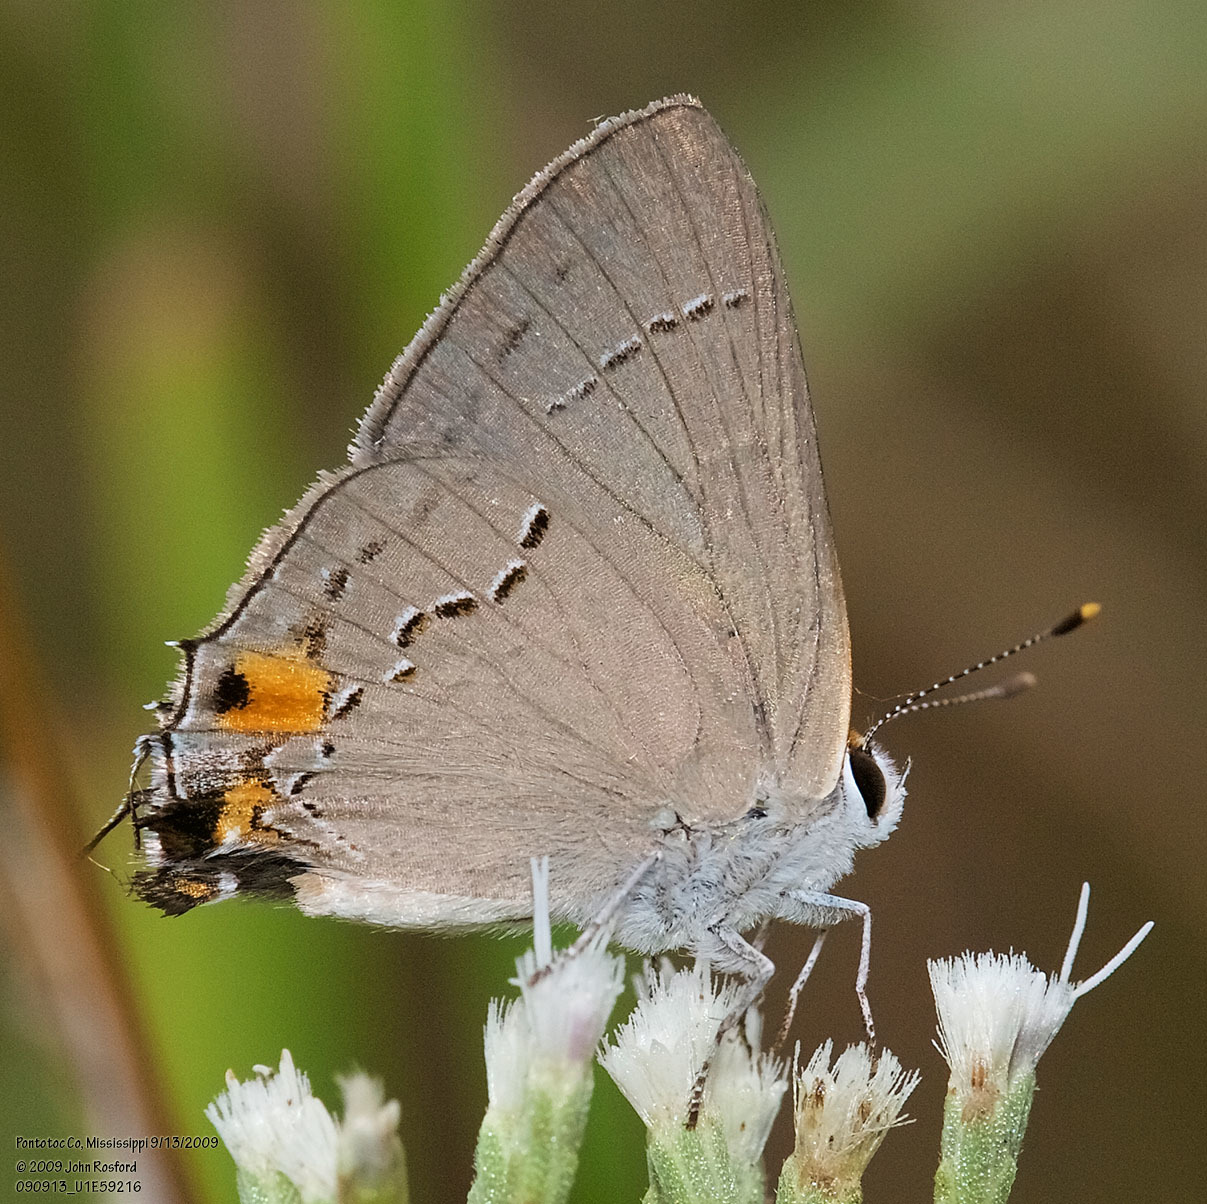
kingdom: Animalia
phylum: Arthropoda
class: Insecta
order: Lepidoptera
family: Lycaenidae
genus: Strymon
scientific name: Strymon melinus
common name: Gray hairstreak
